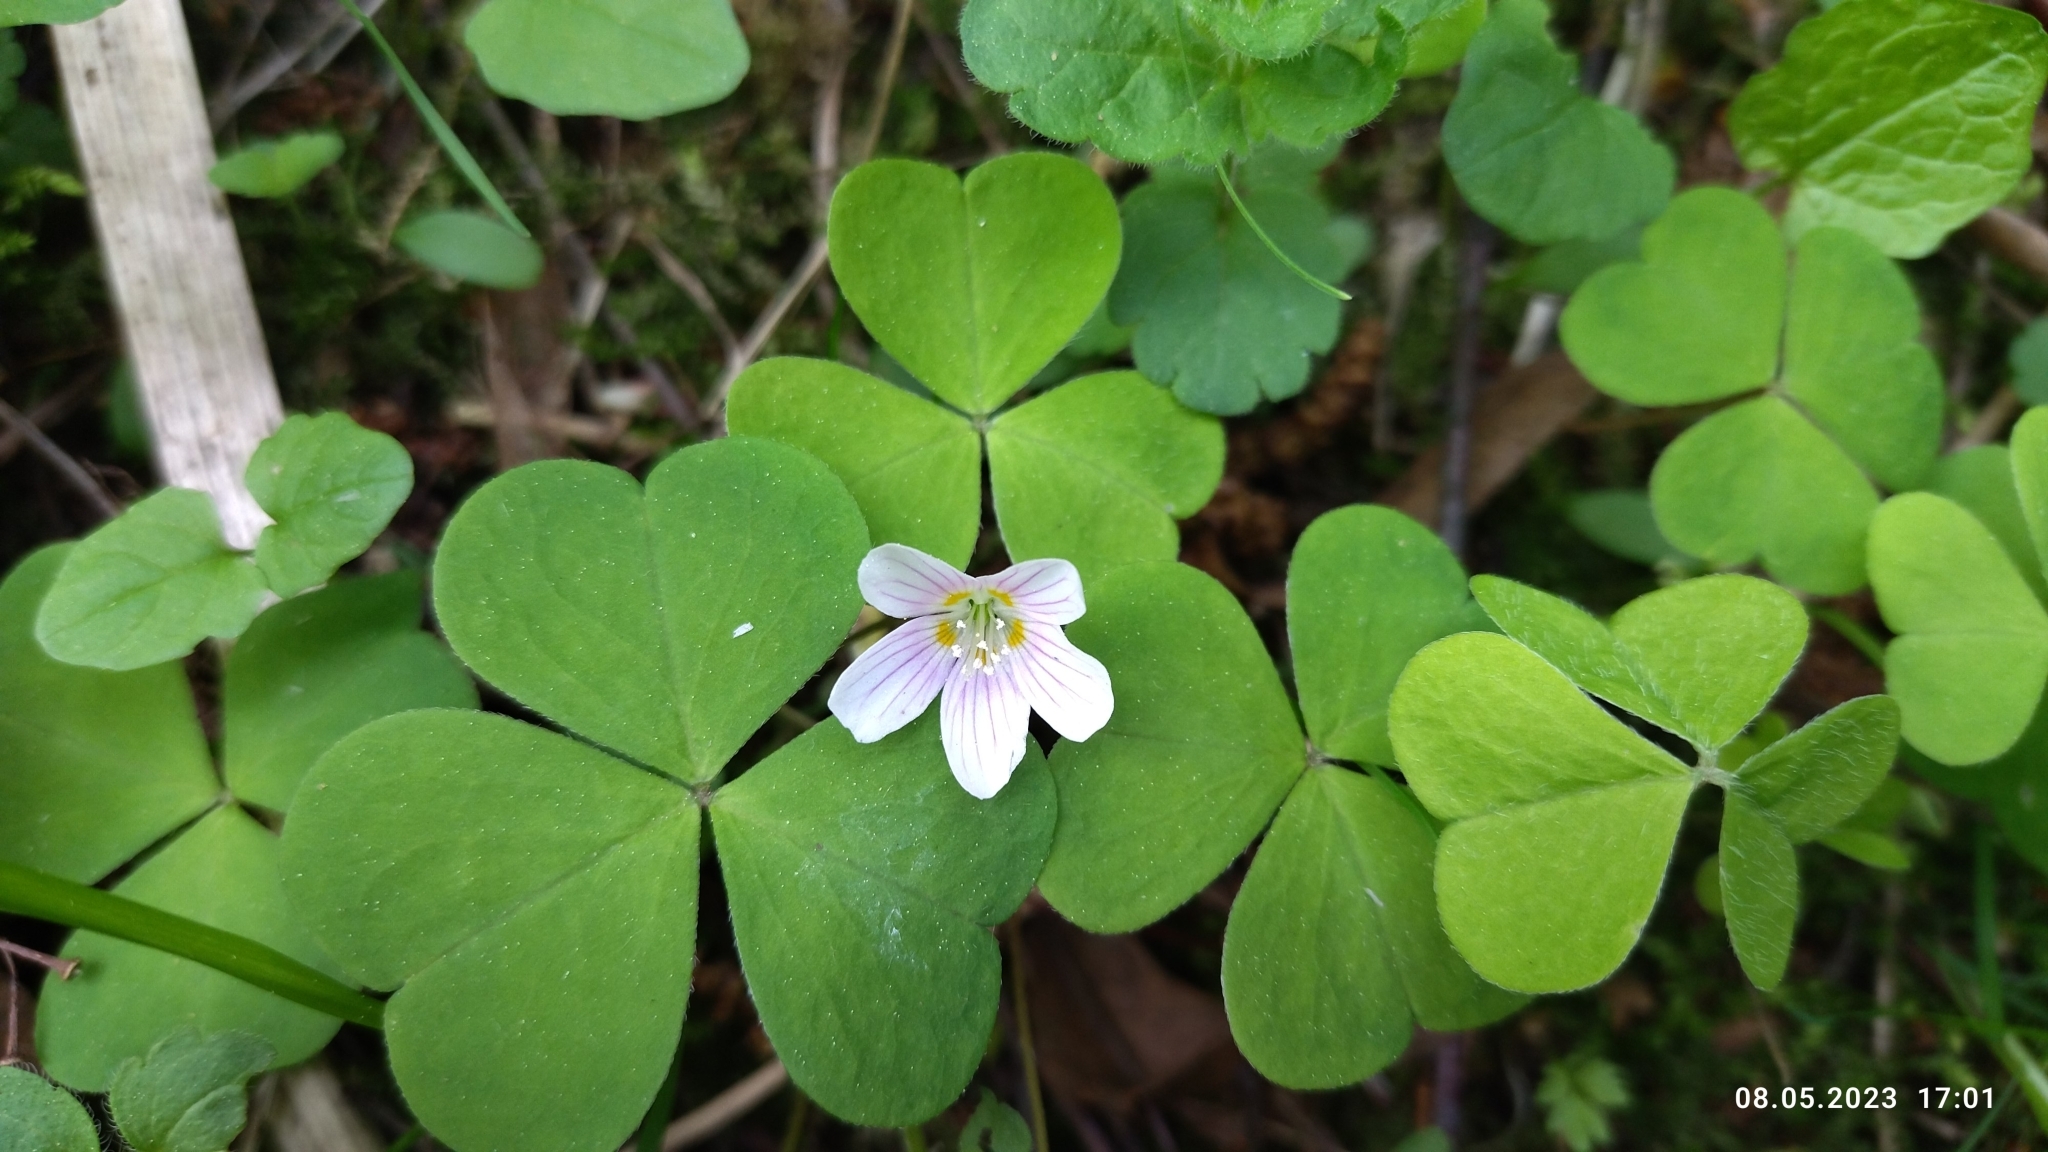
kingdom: Plantae
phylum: Tracheophyta
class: Magnoliopsida
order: Oxalidales
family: Oxalidaceae
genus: Oxalis
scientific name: Oxalis acetosella
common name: Wood-sorrel
